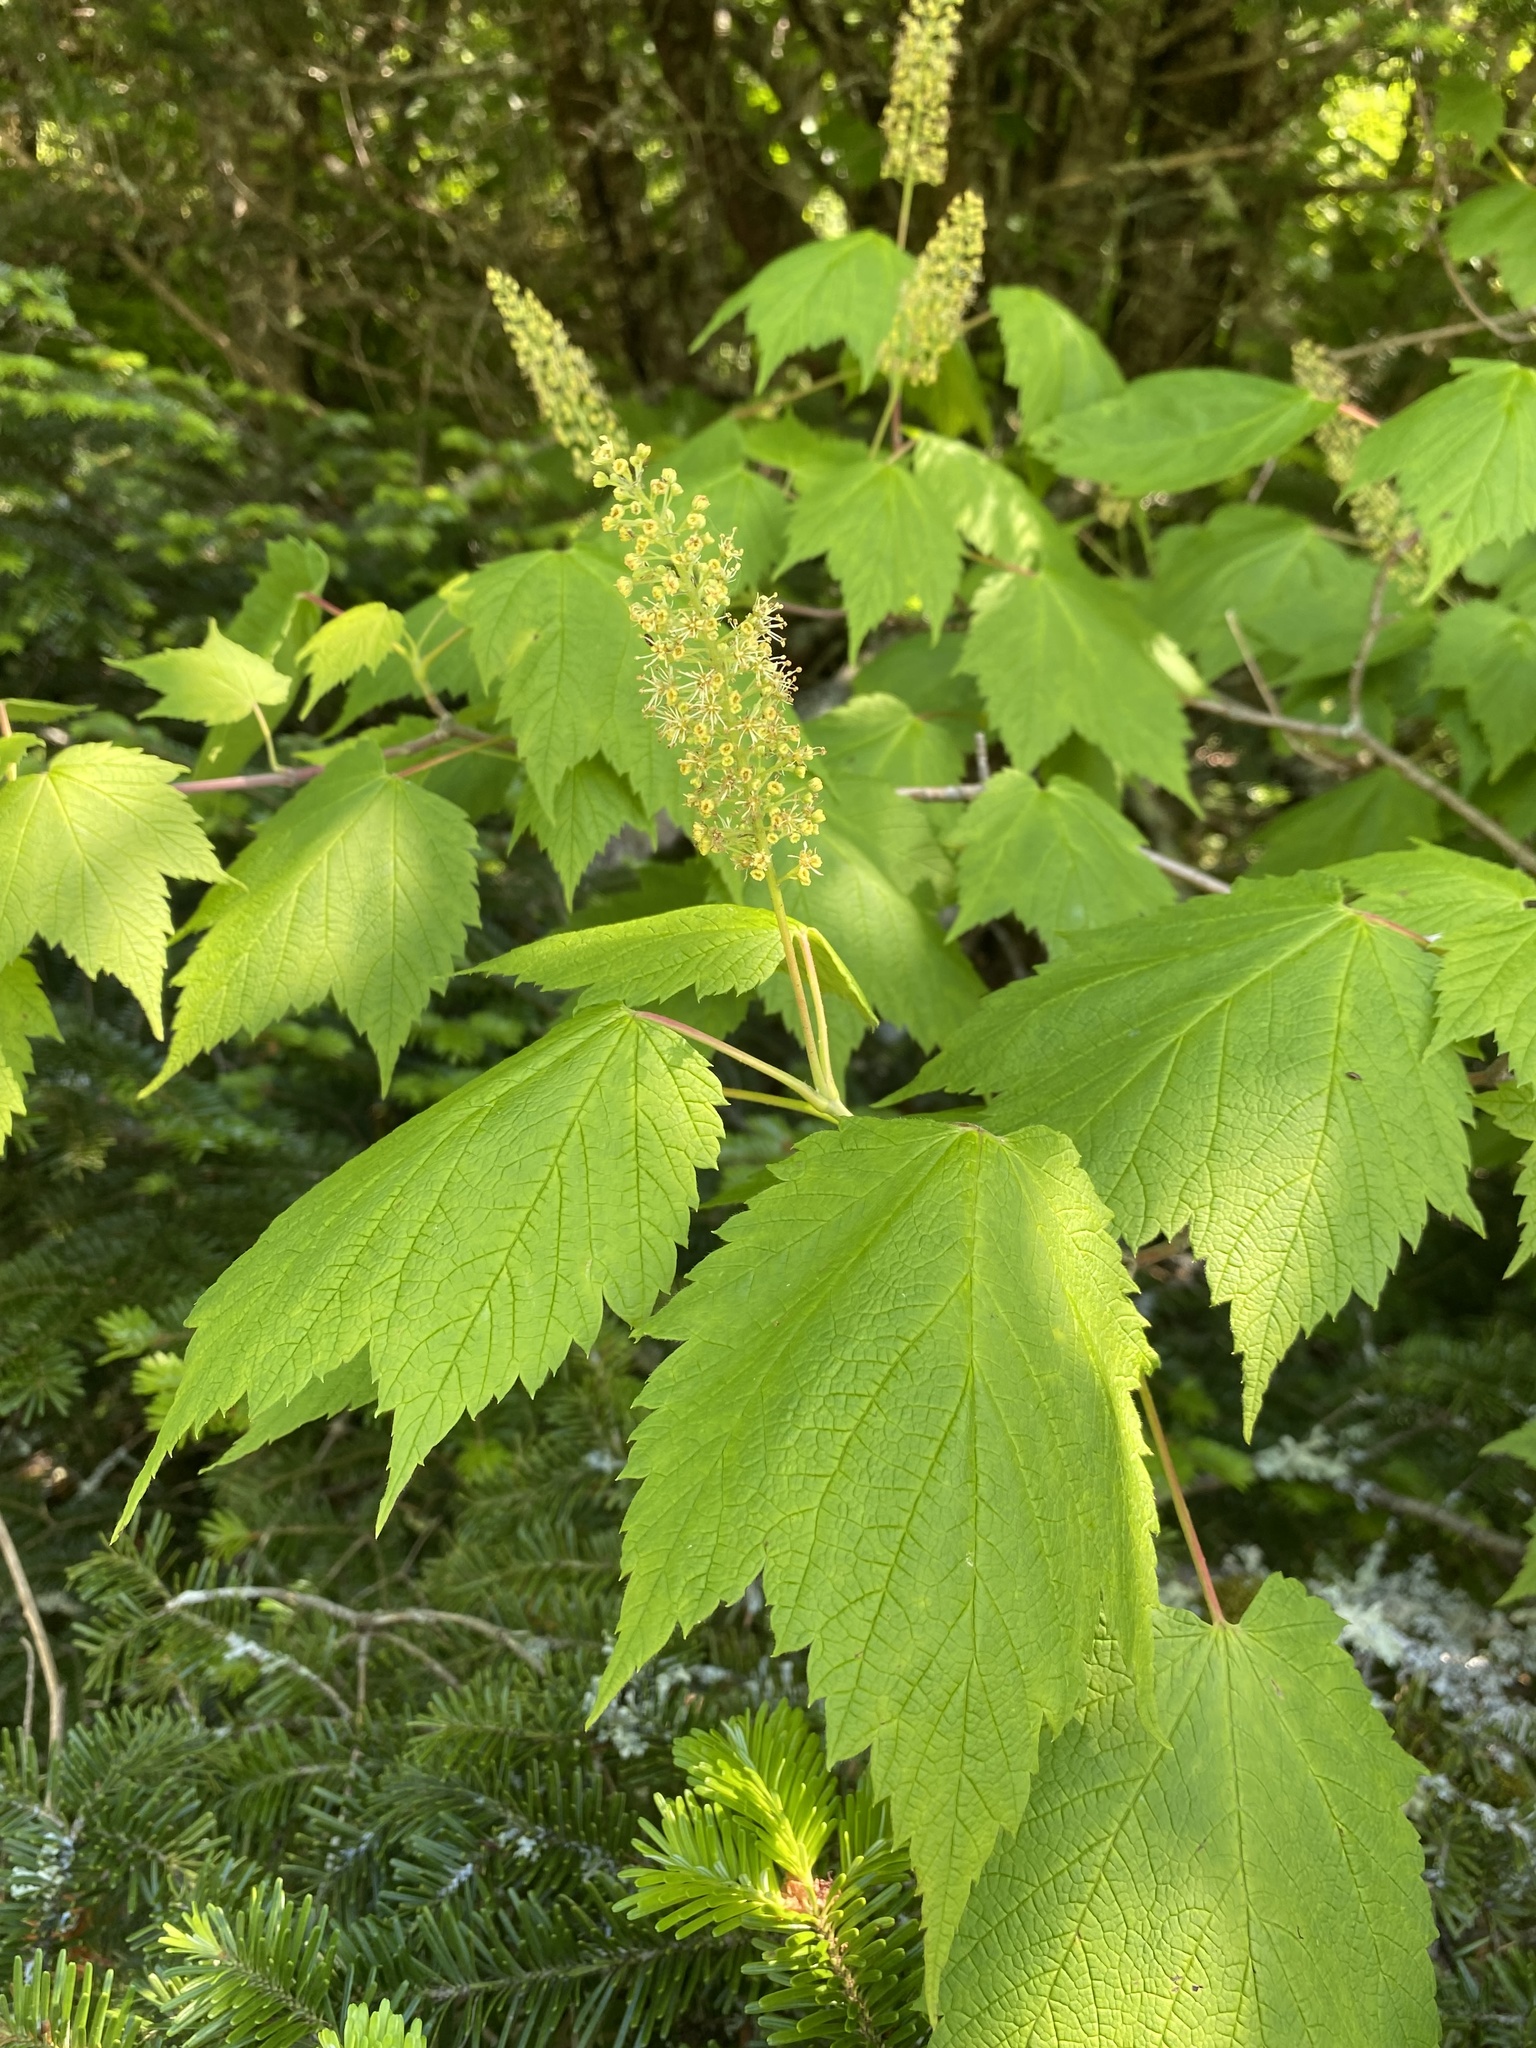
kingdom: Plantae
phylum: Tracheophyta
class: Magnoliopsida
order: Sapindales
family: Sapindaceae
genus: Acer
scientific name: Acer spicatum
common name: Mountain maple
